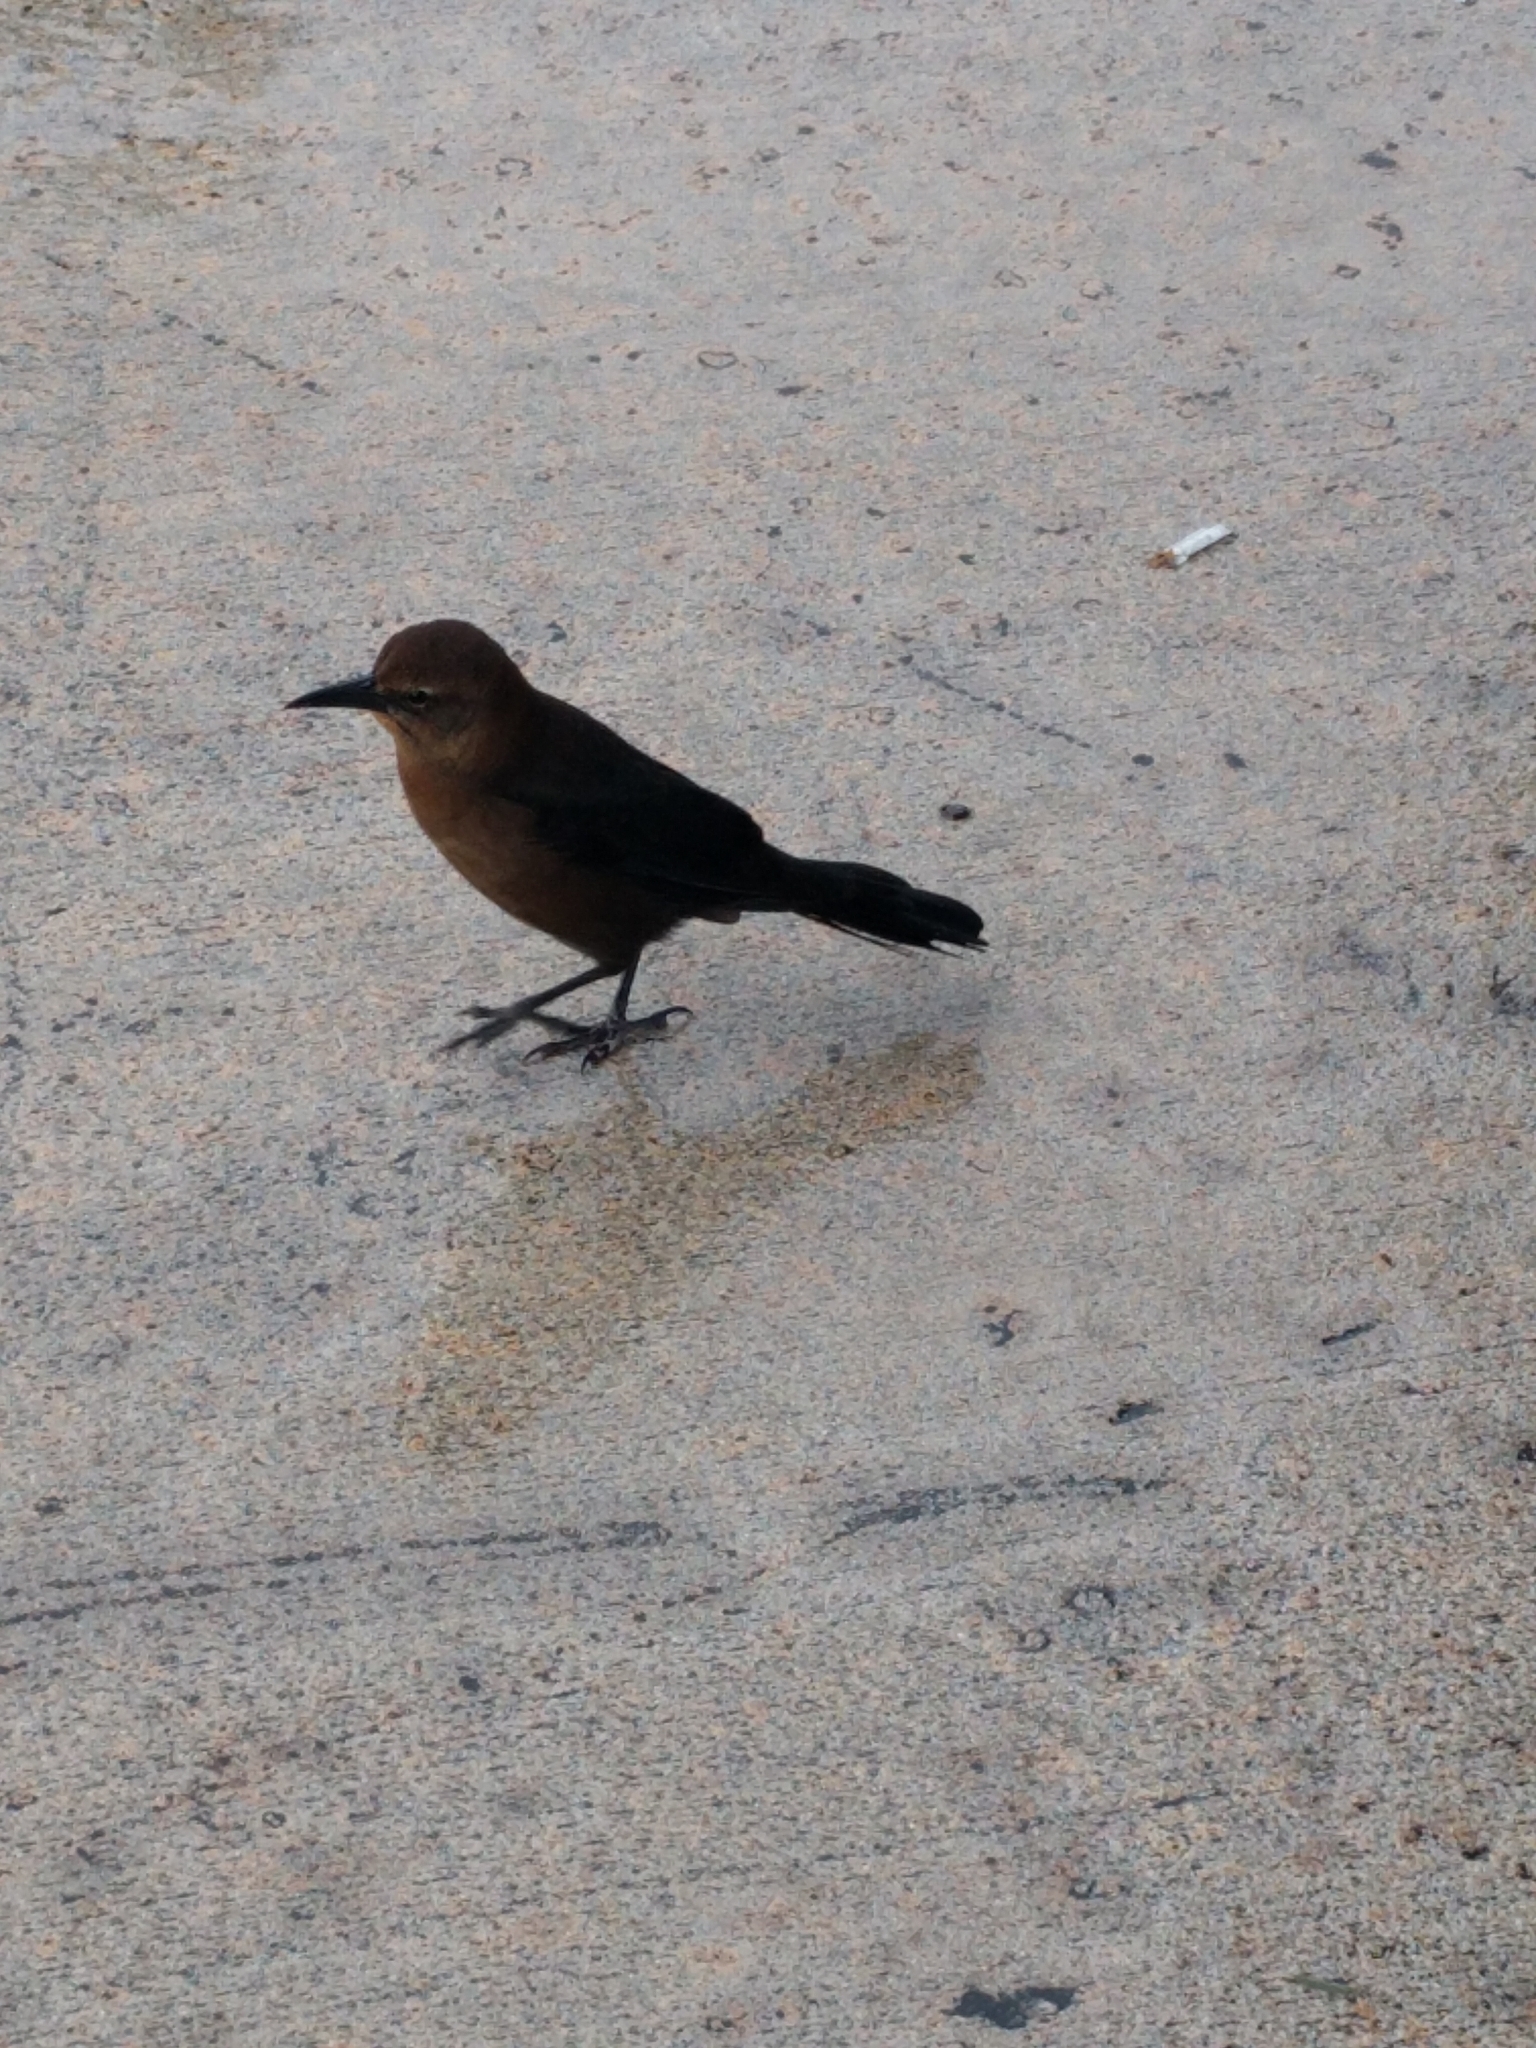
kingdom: Animalia
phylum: Chordata
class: Aves
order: Passeriformes
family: Icteridae
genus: Quiscalus
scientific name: Quiscalus major
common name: Boat-tailed grackle
